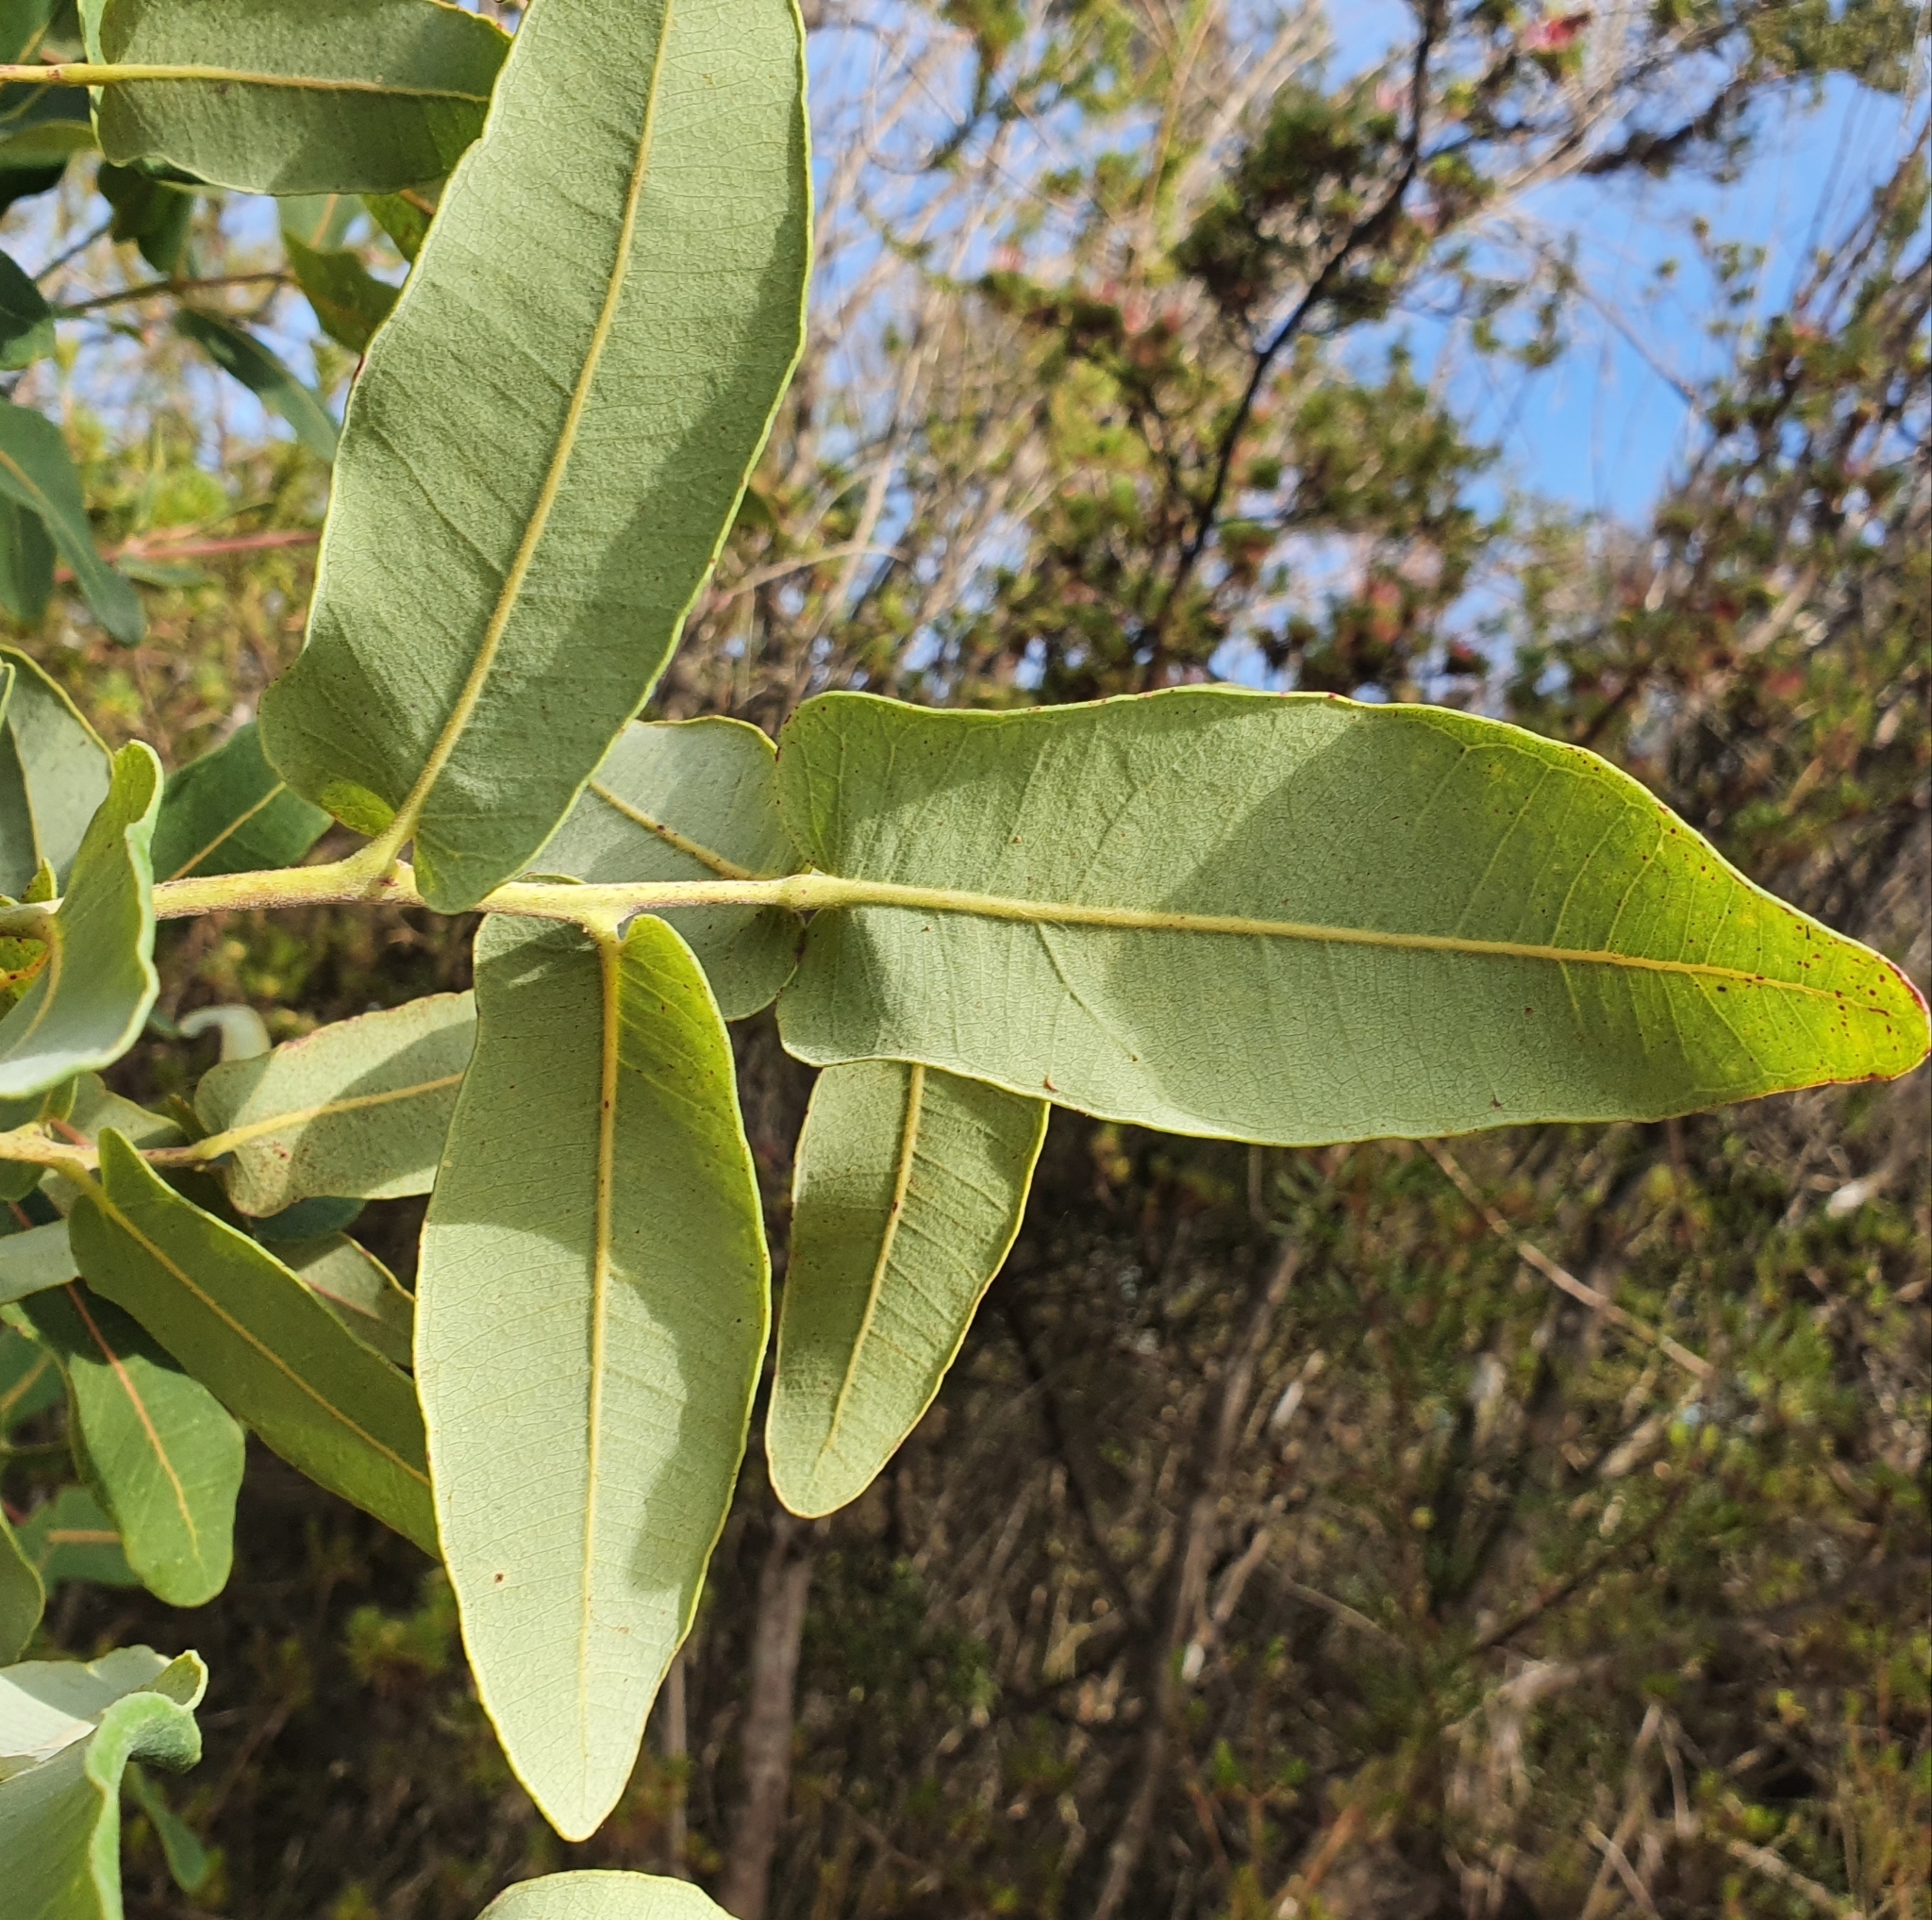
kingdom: Plantae
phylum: Tracheophyta
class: Magnoliopsida
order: Myrtales
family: Myrtaceae
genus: Angophora
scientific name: Angophora hispida
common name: Dwarf-apple
